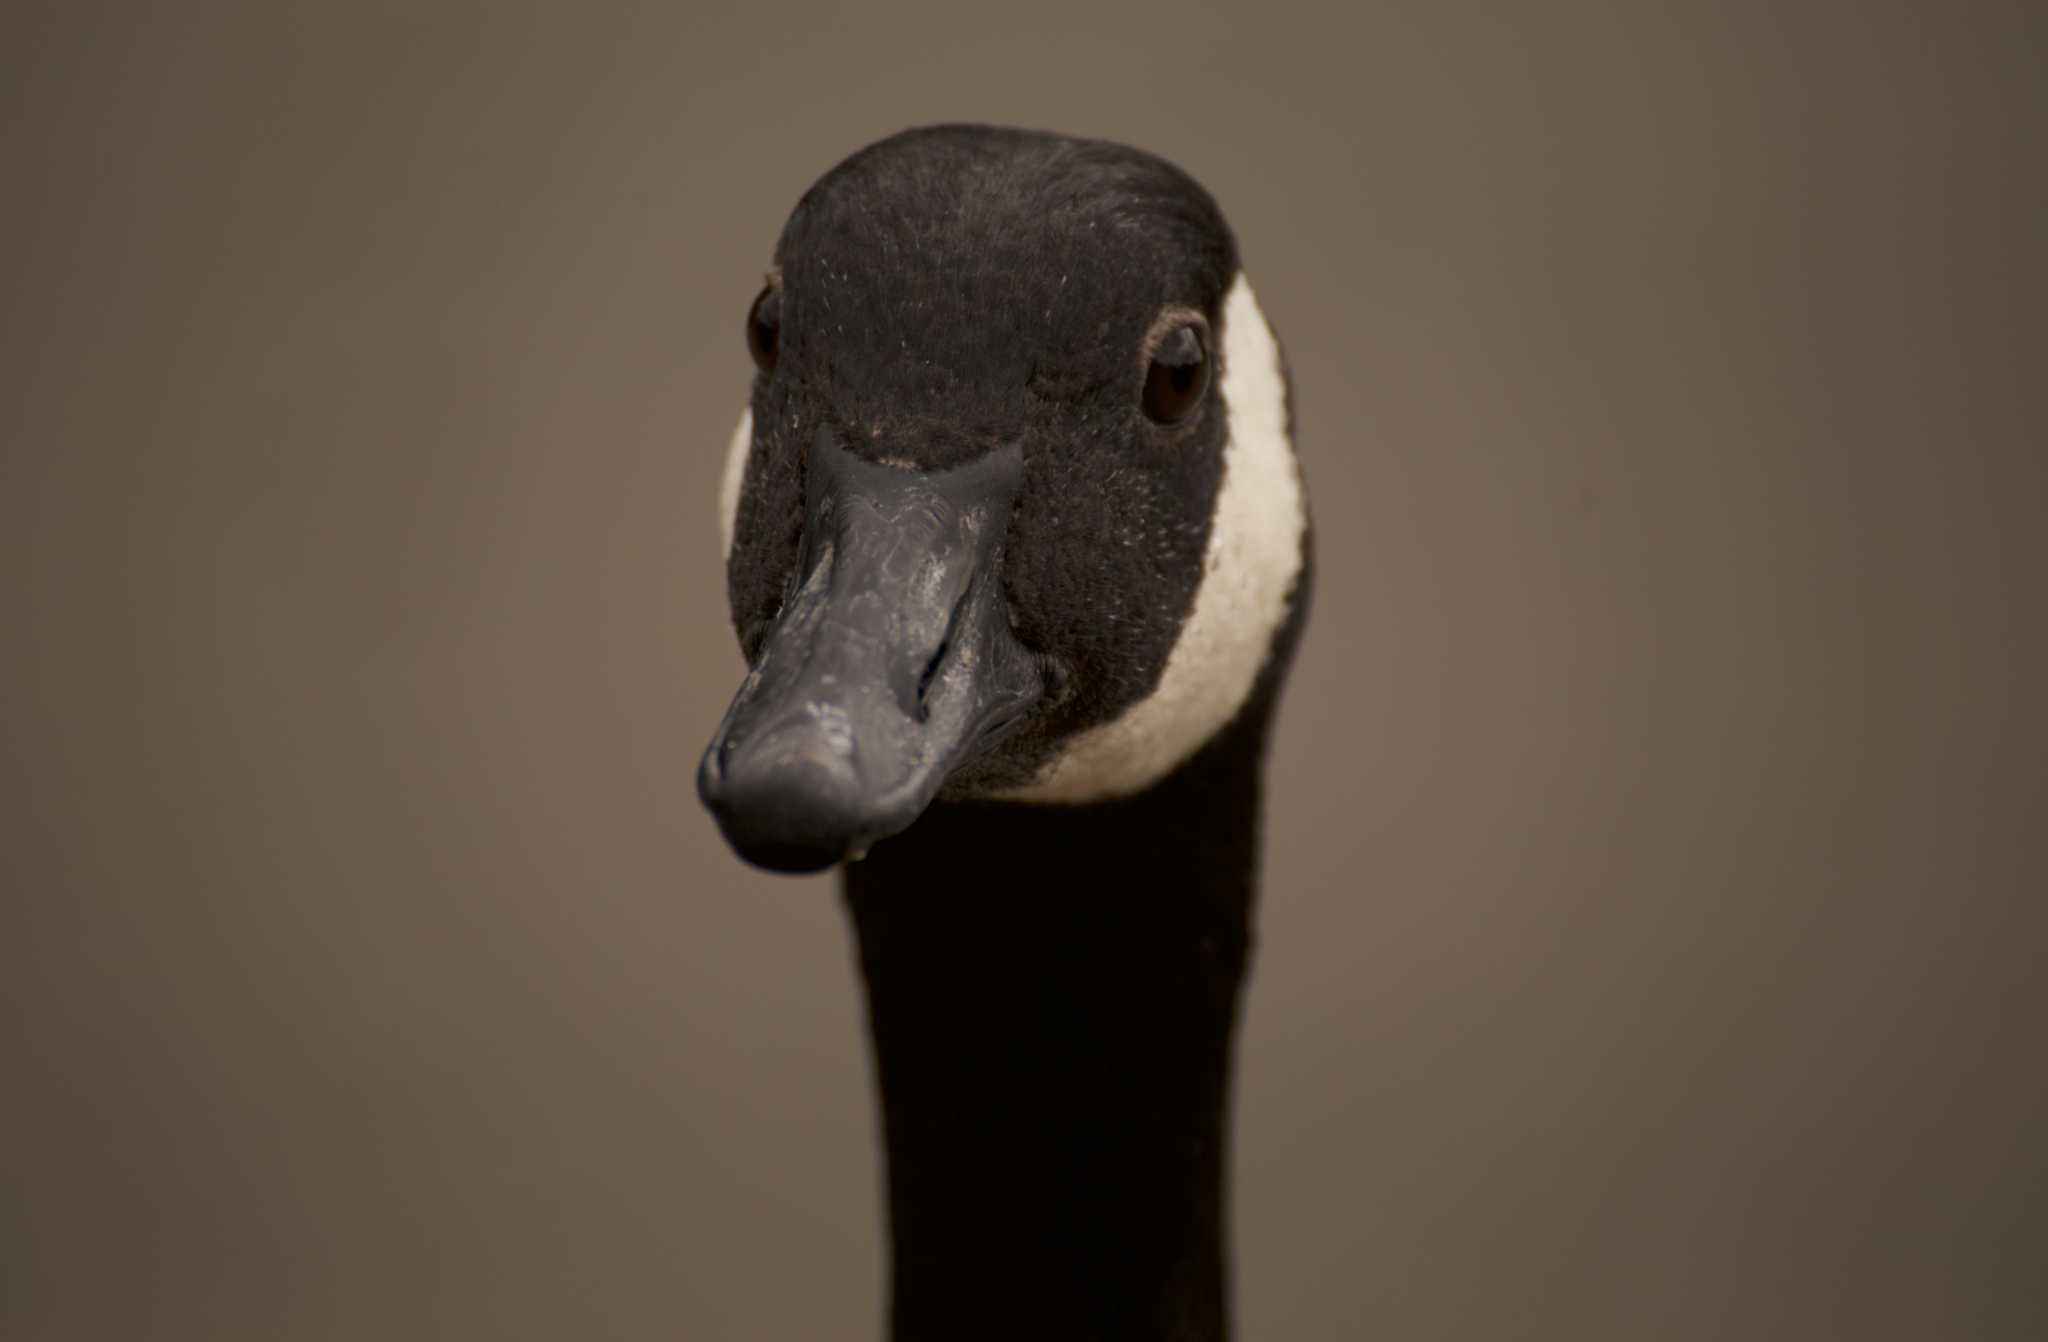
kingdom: Animalia
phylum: Chordata
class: Aves
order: Anseriformes
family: Anatidae
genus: Branta
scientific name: Branta canadensis
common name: Canada goose
